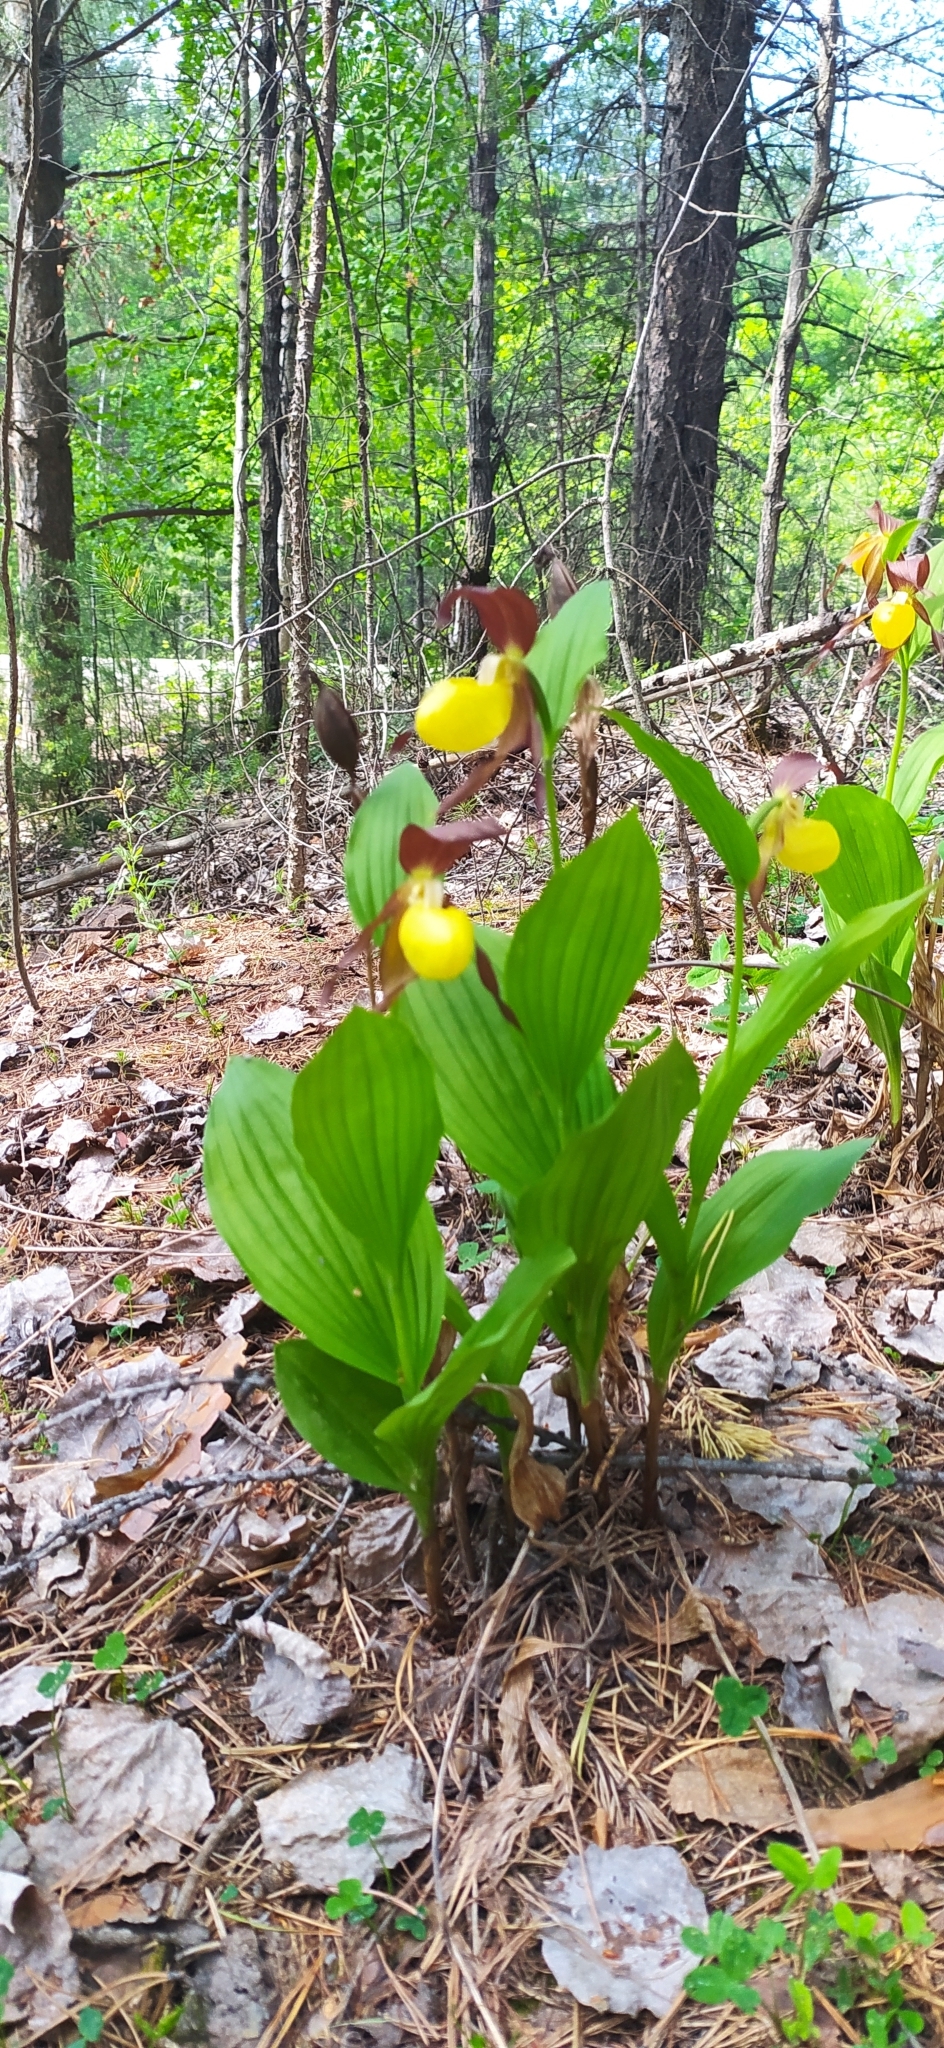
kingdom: Plantae
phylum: Tracheophyta
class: Liliopsida
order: Asparagales
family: Orchidaceae
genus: Cypripedium
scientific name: Cypripedium calceolus
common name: Lady's-slipper
